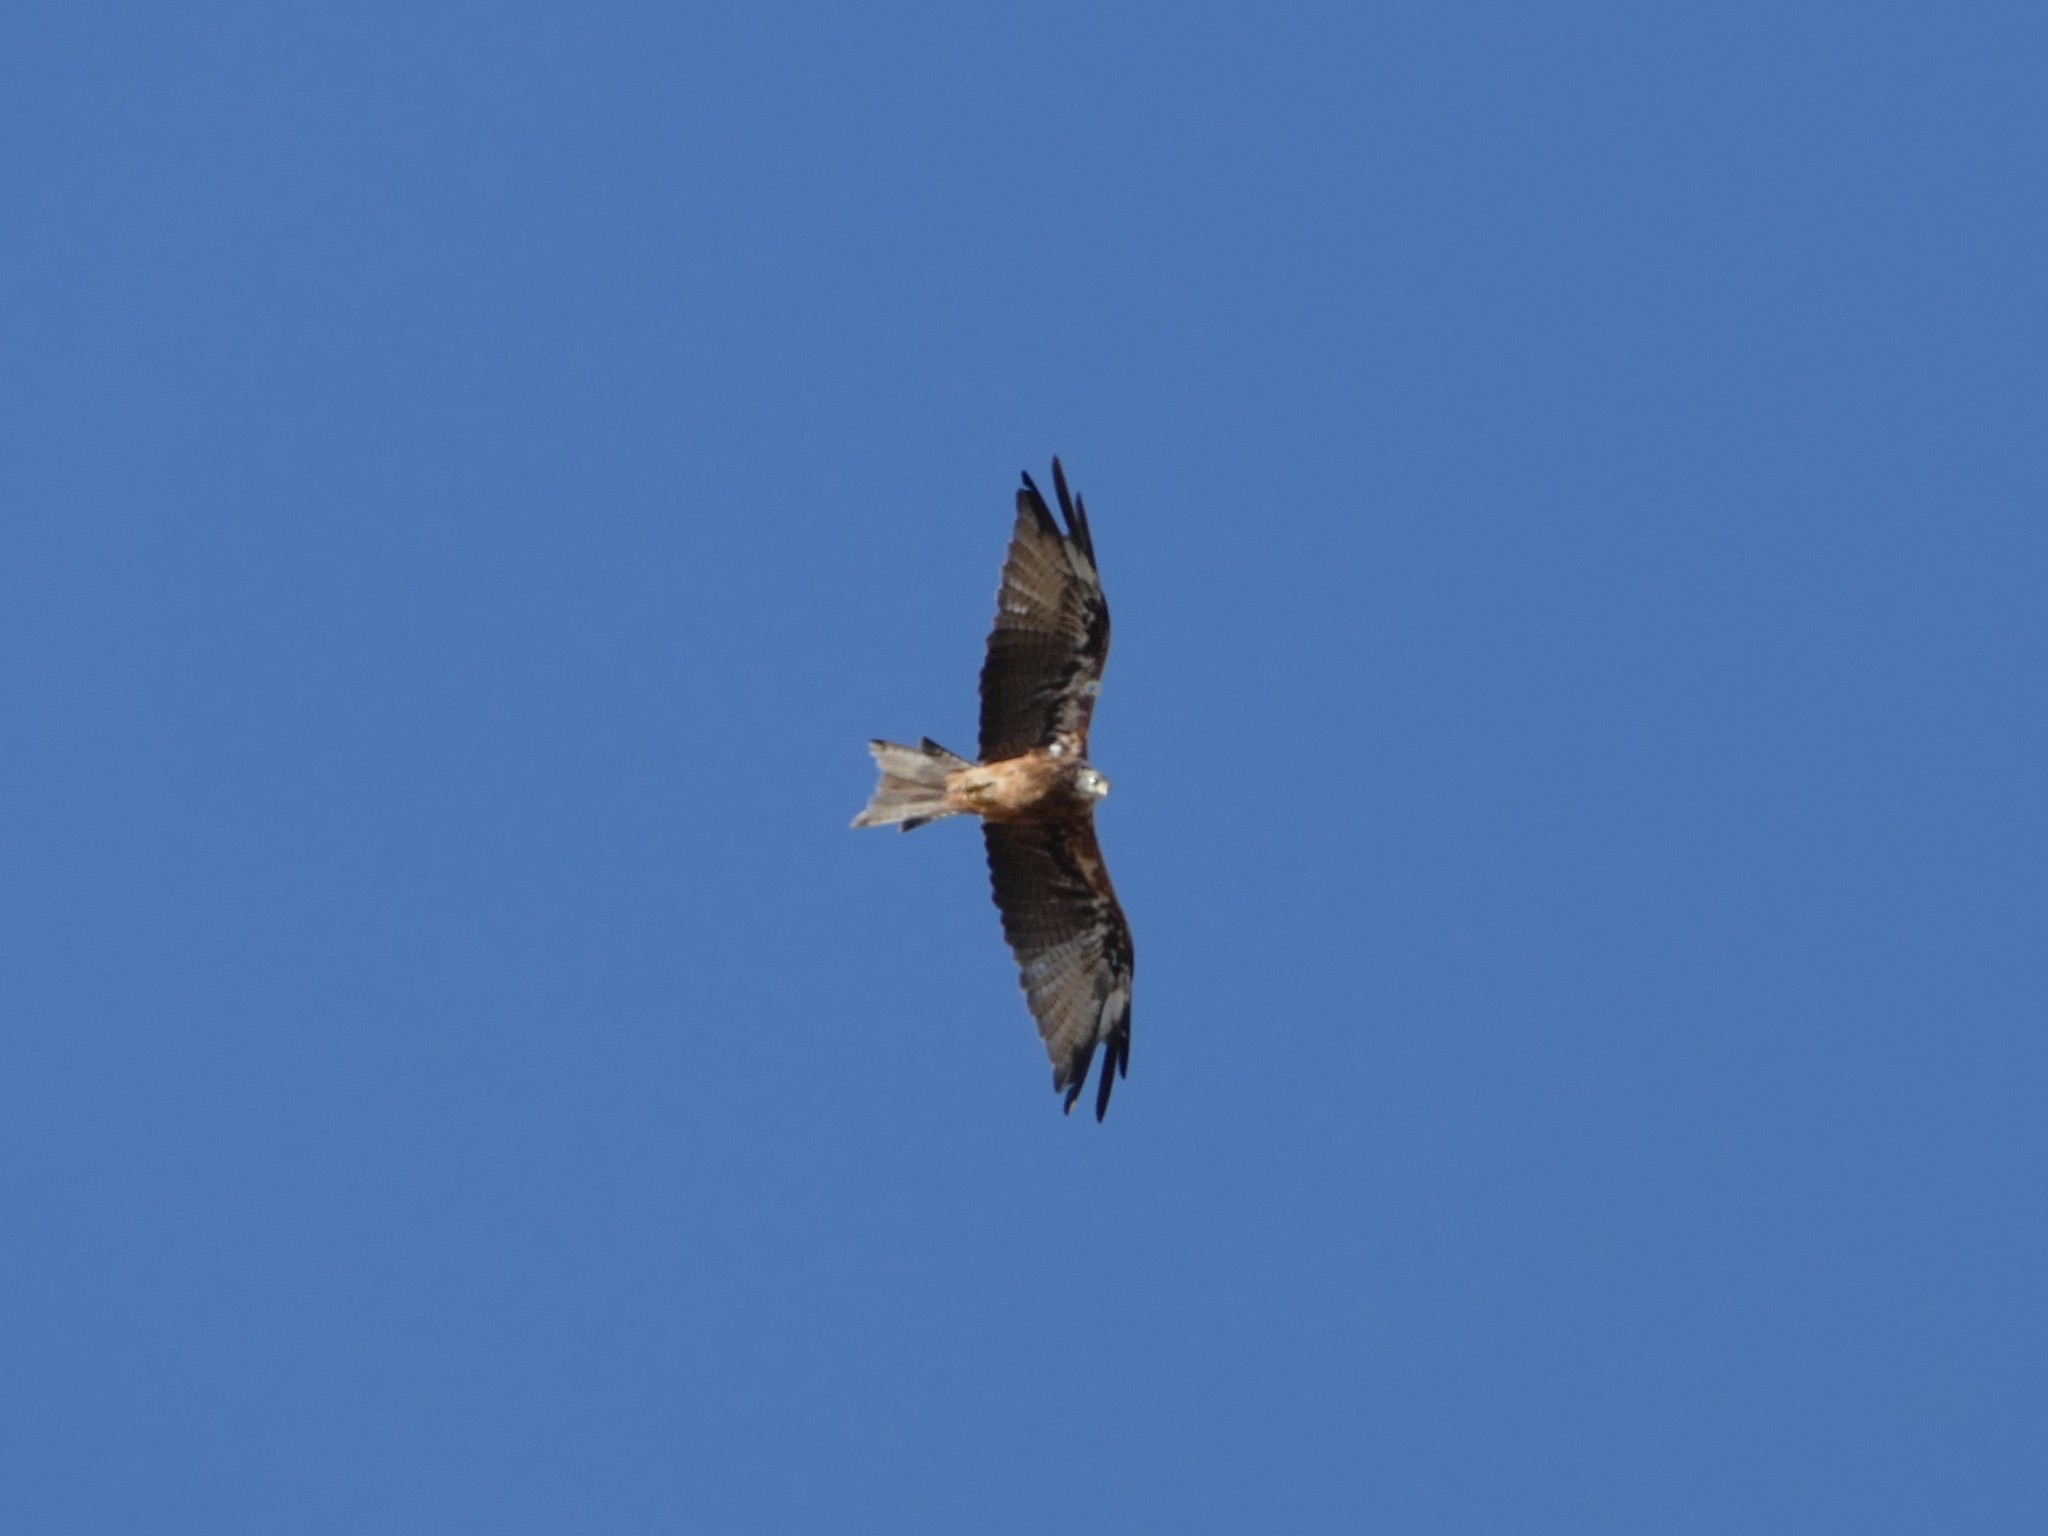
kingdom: Animalia
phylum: Chordata
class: Aves
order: Accipitriformes
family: Accipitridae
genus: Milvus
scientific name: Milvus milvus
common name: Red kite
